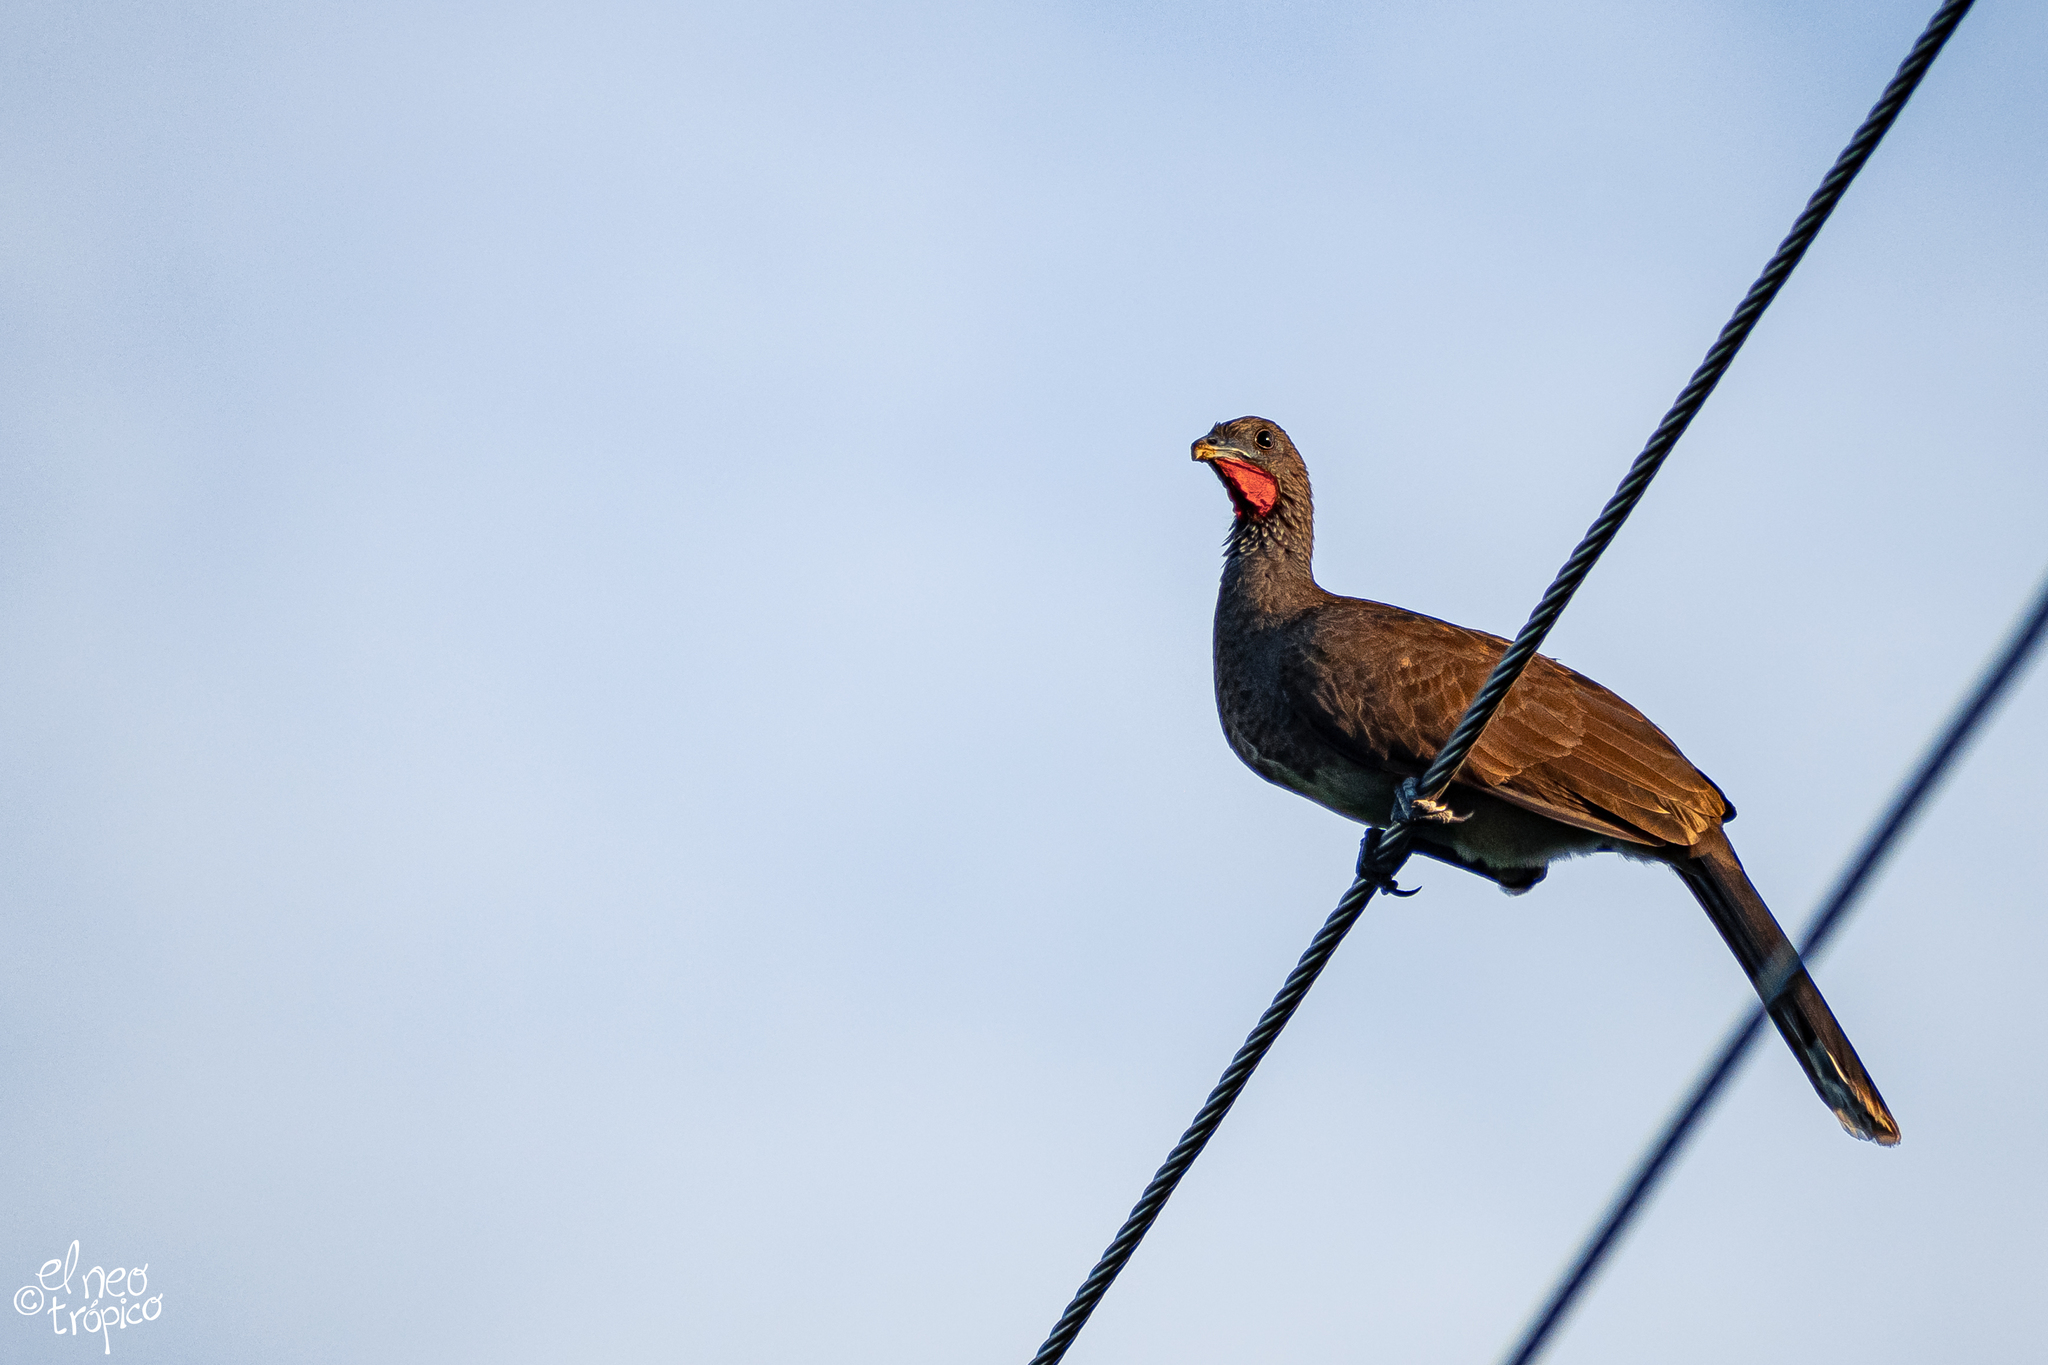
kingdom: Animalia
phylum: Chordata
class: Aves
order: Galliformes
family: Cracidae
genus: Ortalis
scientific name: Ortalis leucogastra
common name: White-bellied chachalaca
